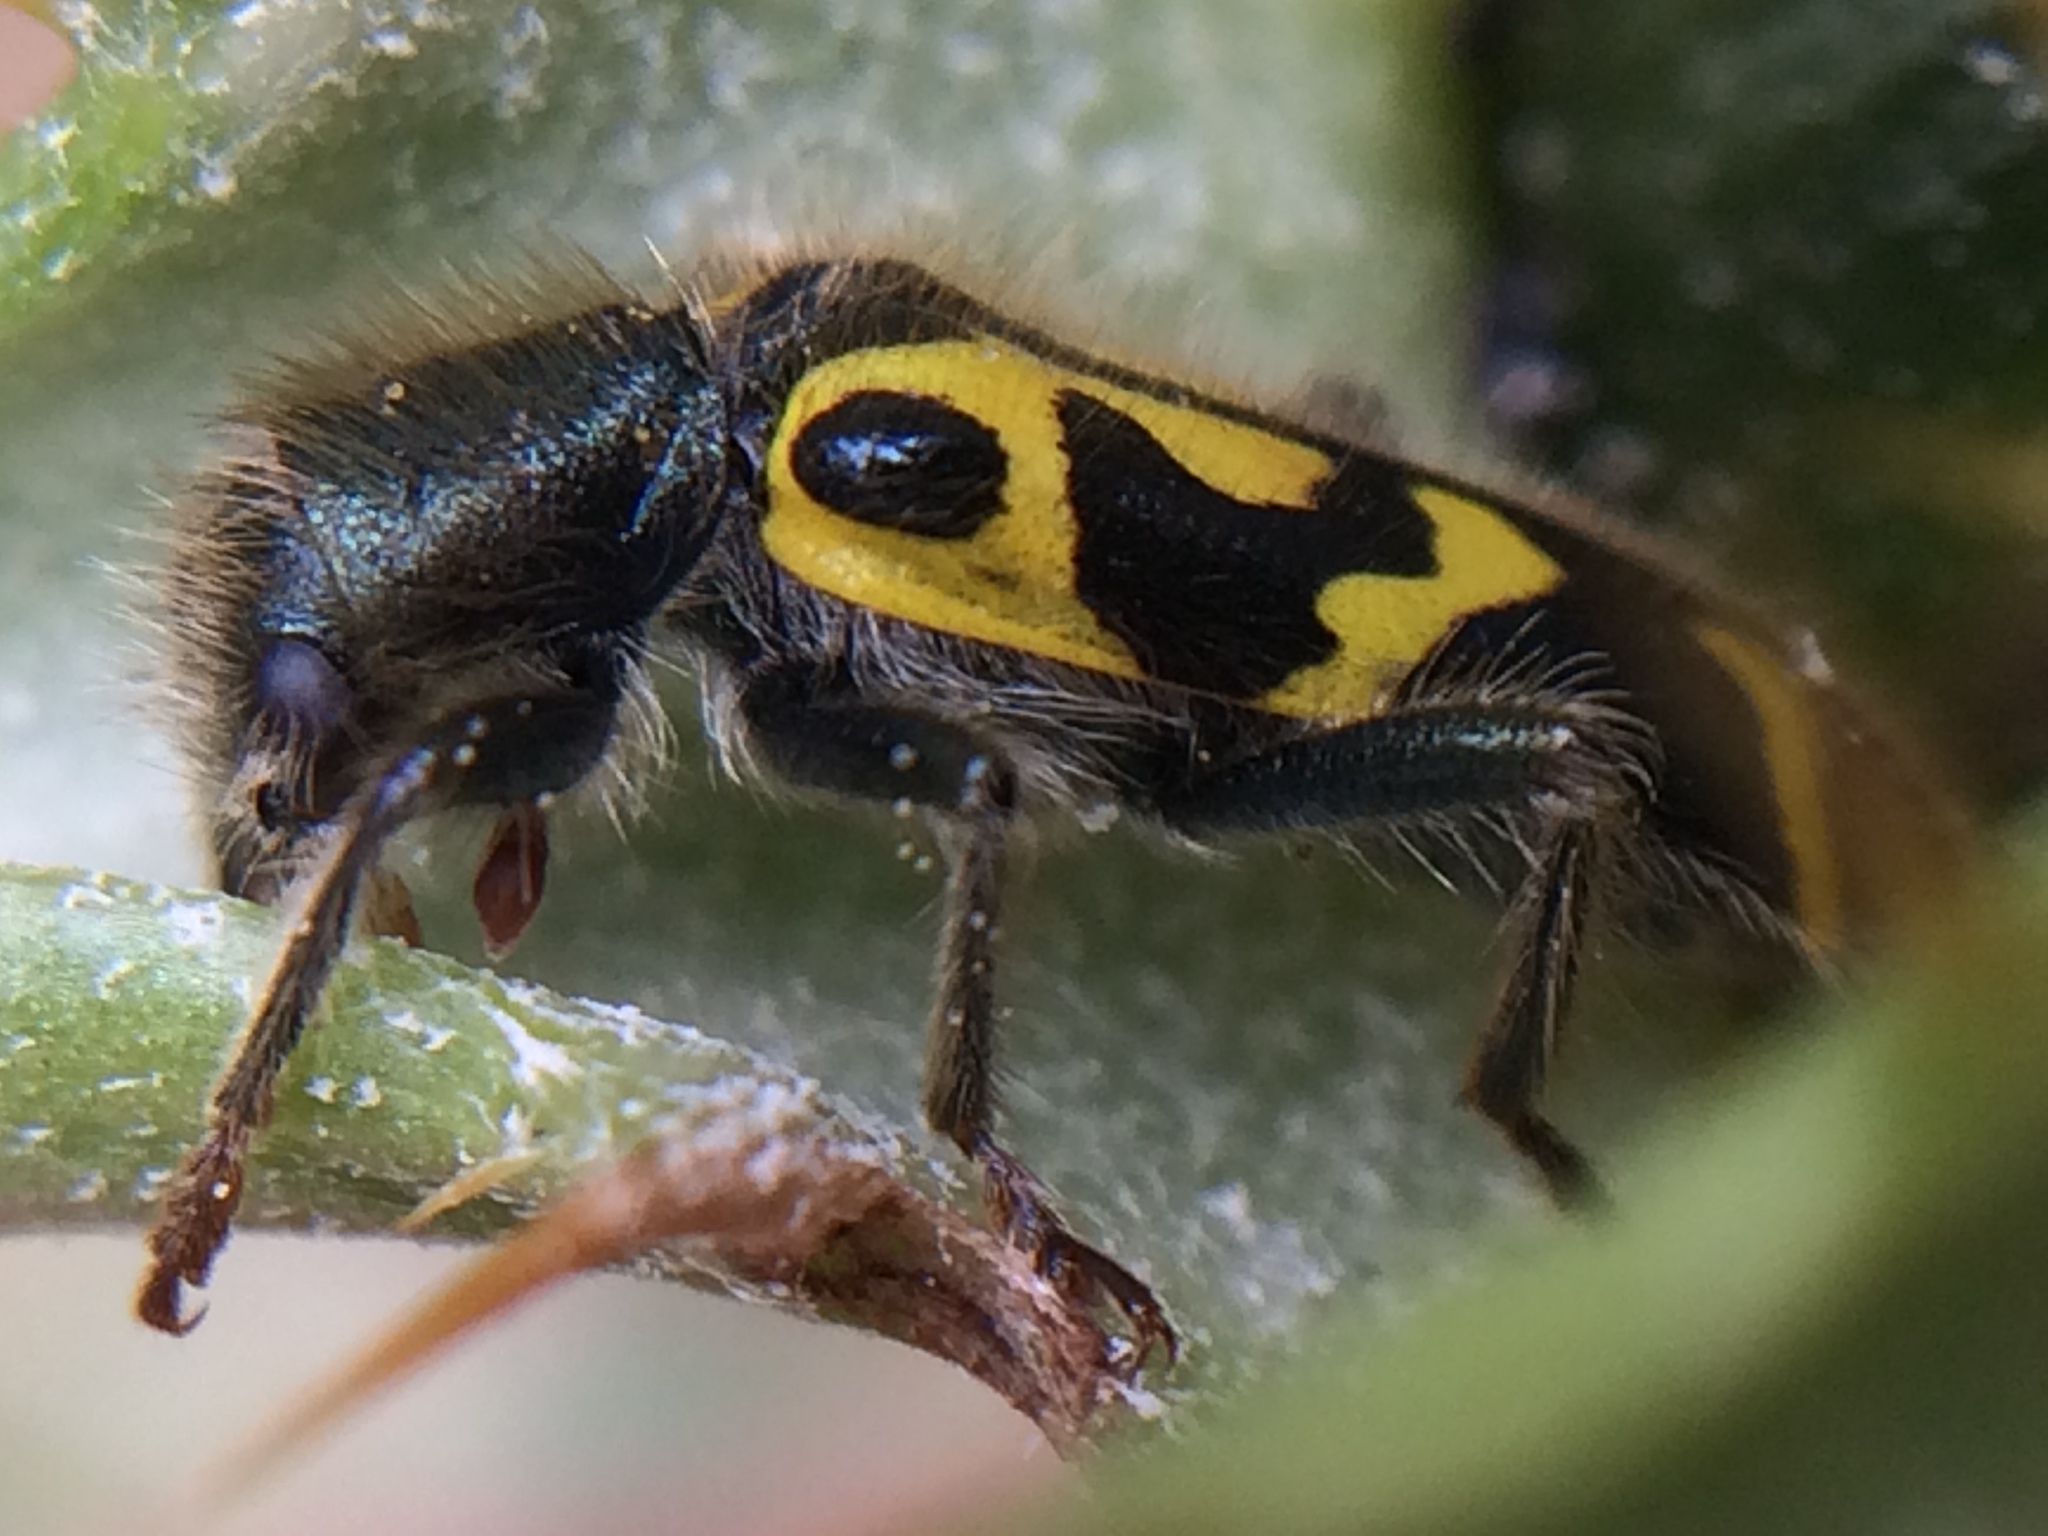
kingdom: Animalia
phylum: Arthropoda
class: Insecta
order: Coleoptera
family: Cleridae
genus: Trichodes
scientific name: Trichodes ornatus
